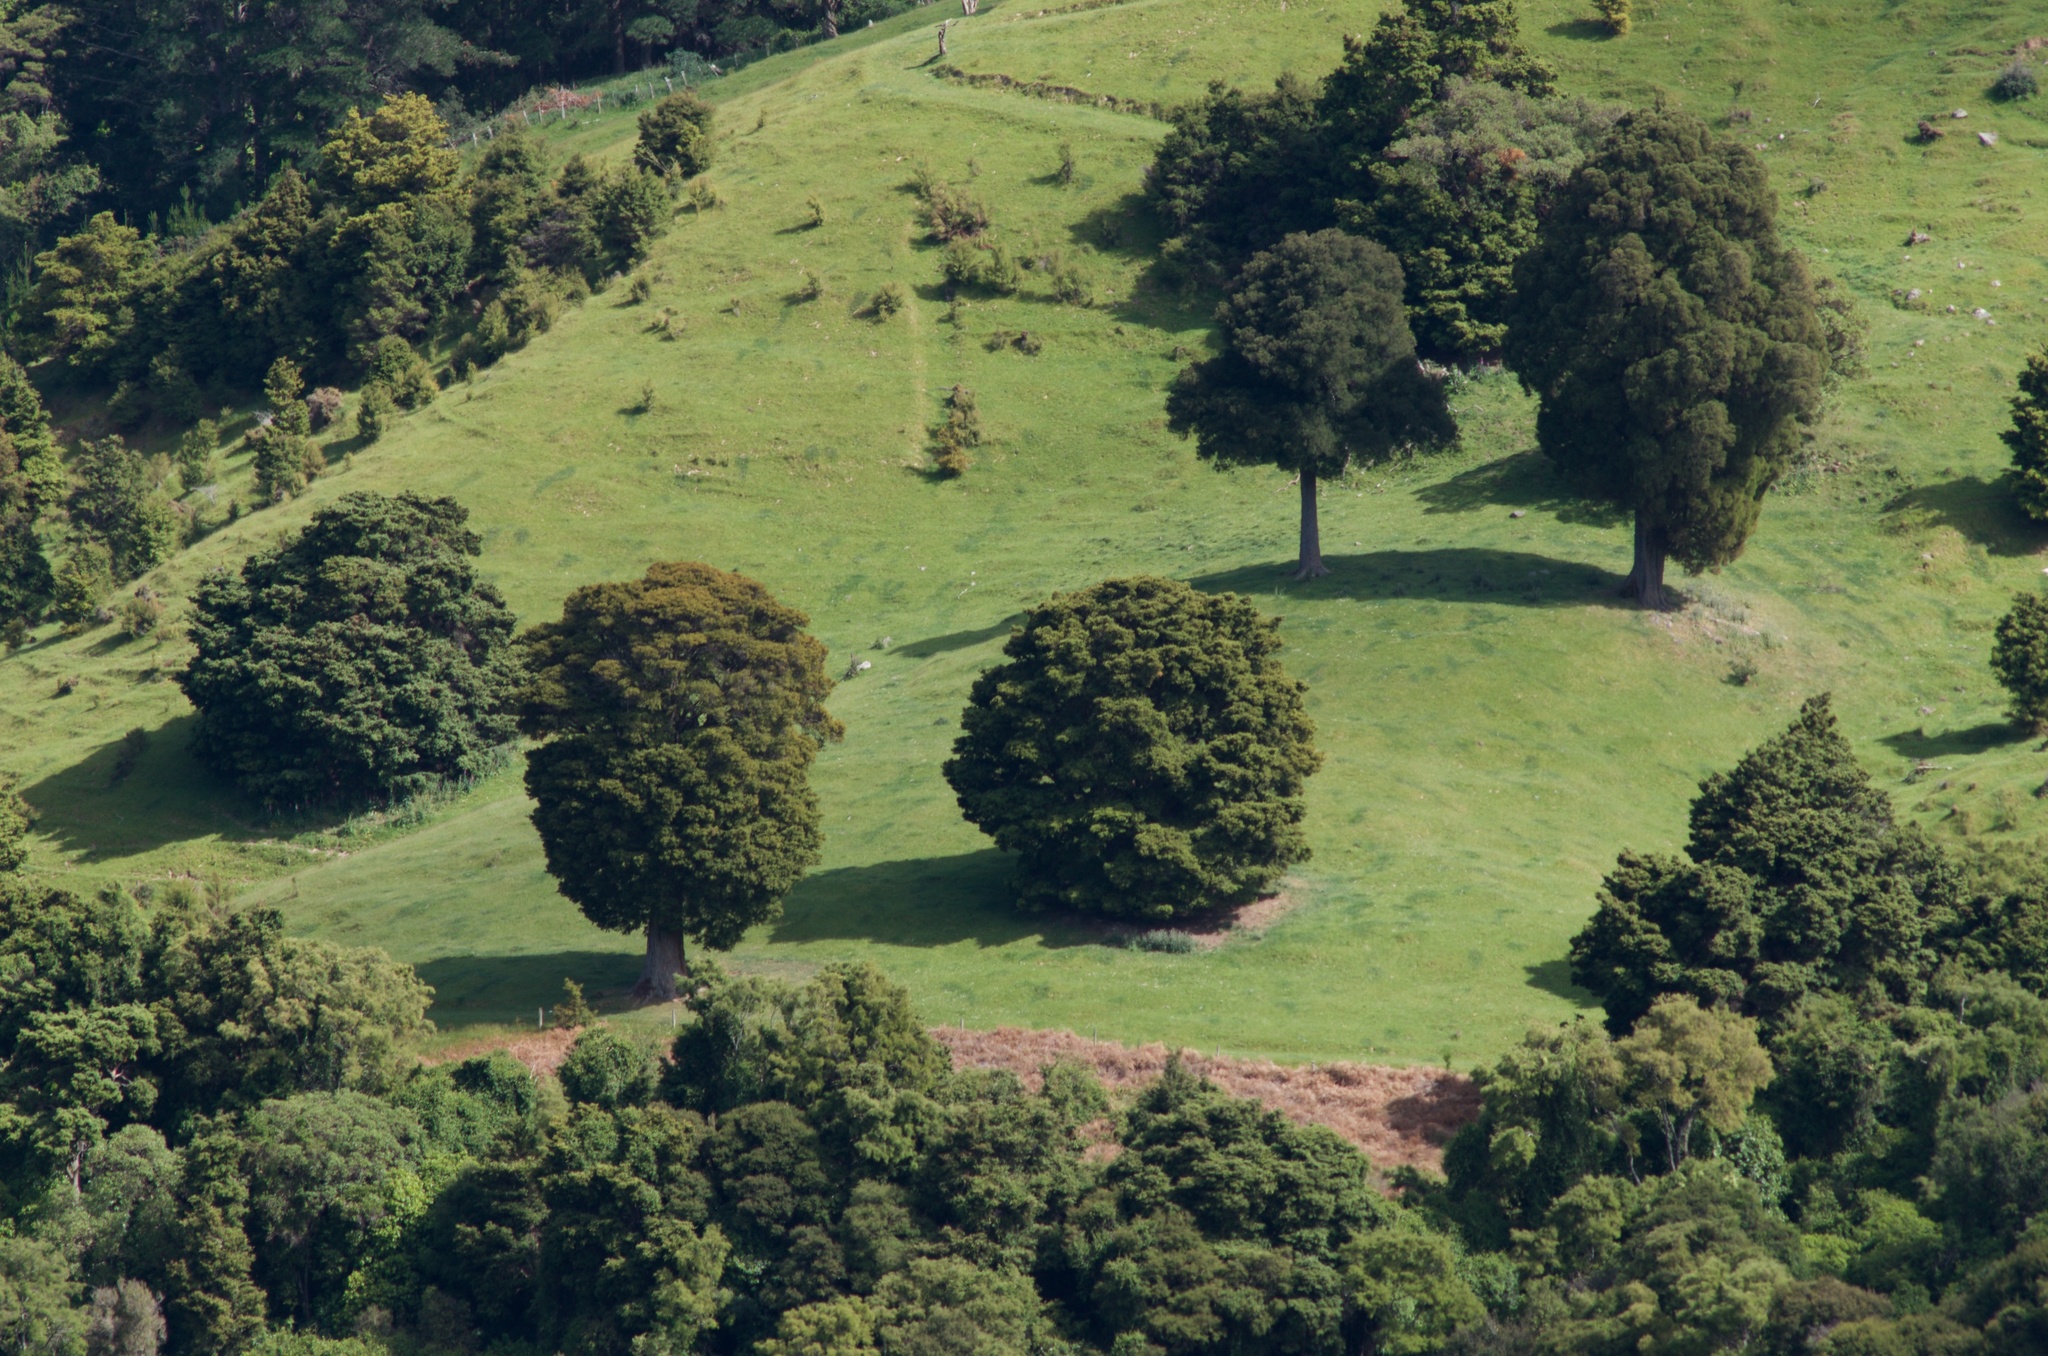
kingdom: Plantae
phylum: Tracheophyta
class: Pinopsida
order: Pinales
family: Podocarpaceae
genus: Podocarpus
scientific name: Podocarpus totara
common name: Totara
